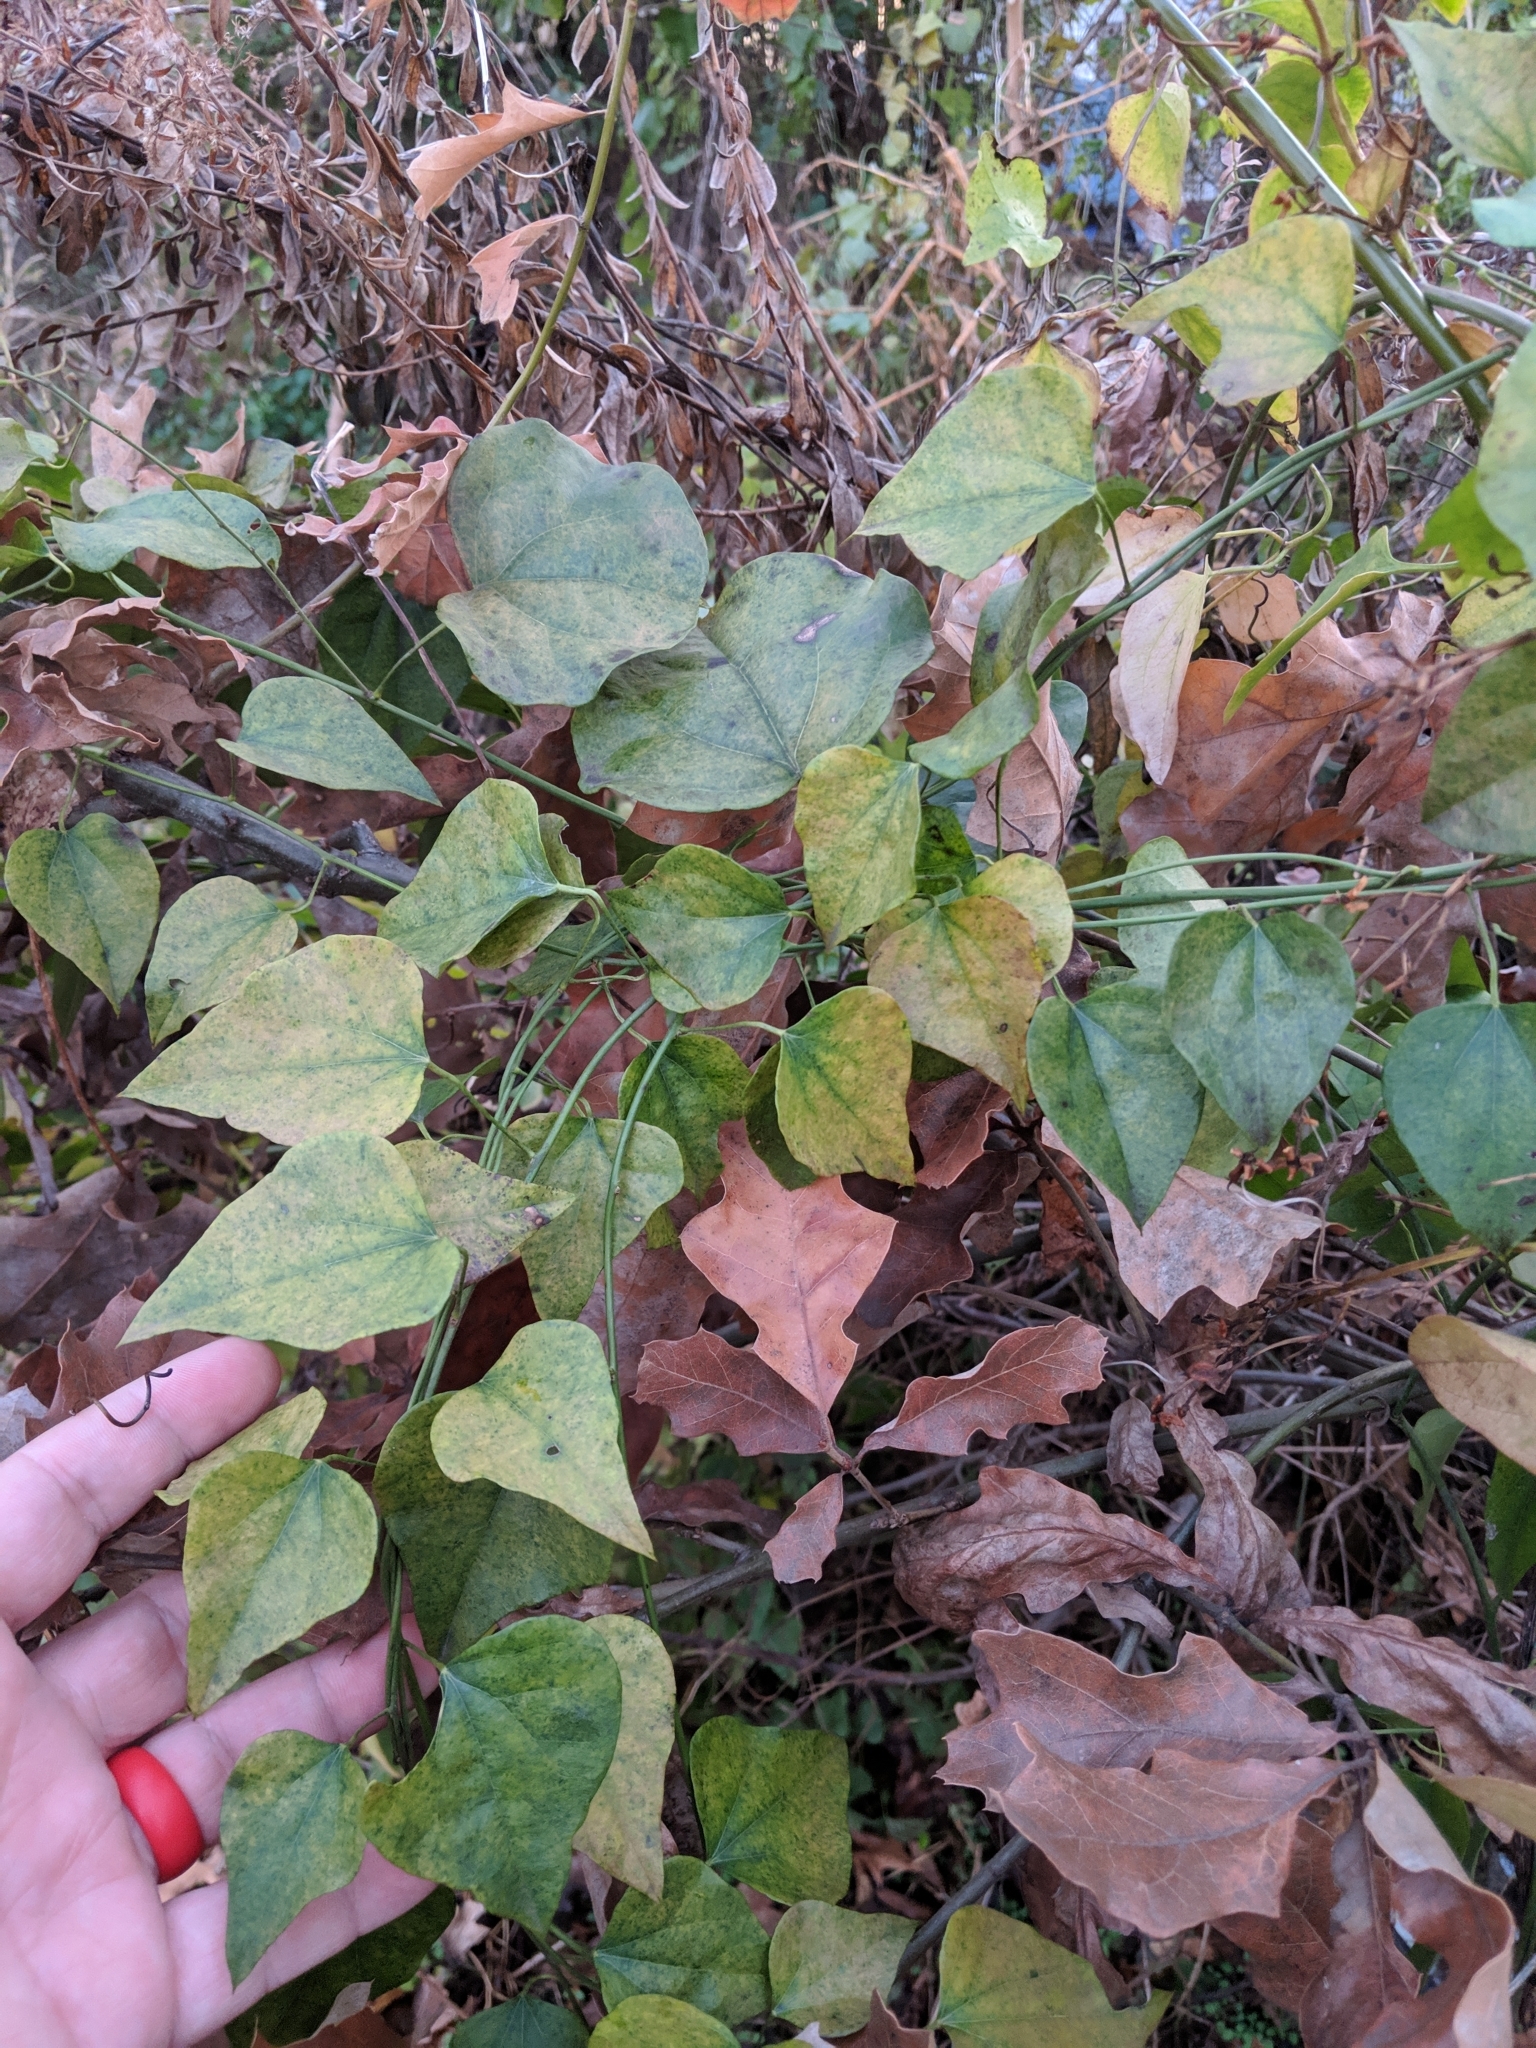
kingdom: Plantae
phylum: Tracheophyta
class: Magnoliopsida
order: Ranunculales
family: Menispermaceae
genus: Cocculus
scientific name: Cocculus carolinus
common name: Carolina moonseed
